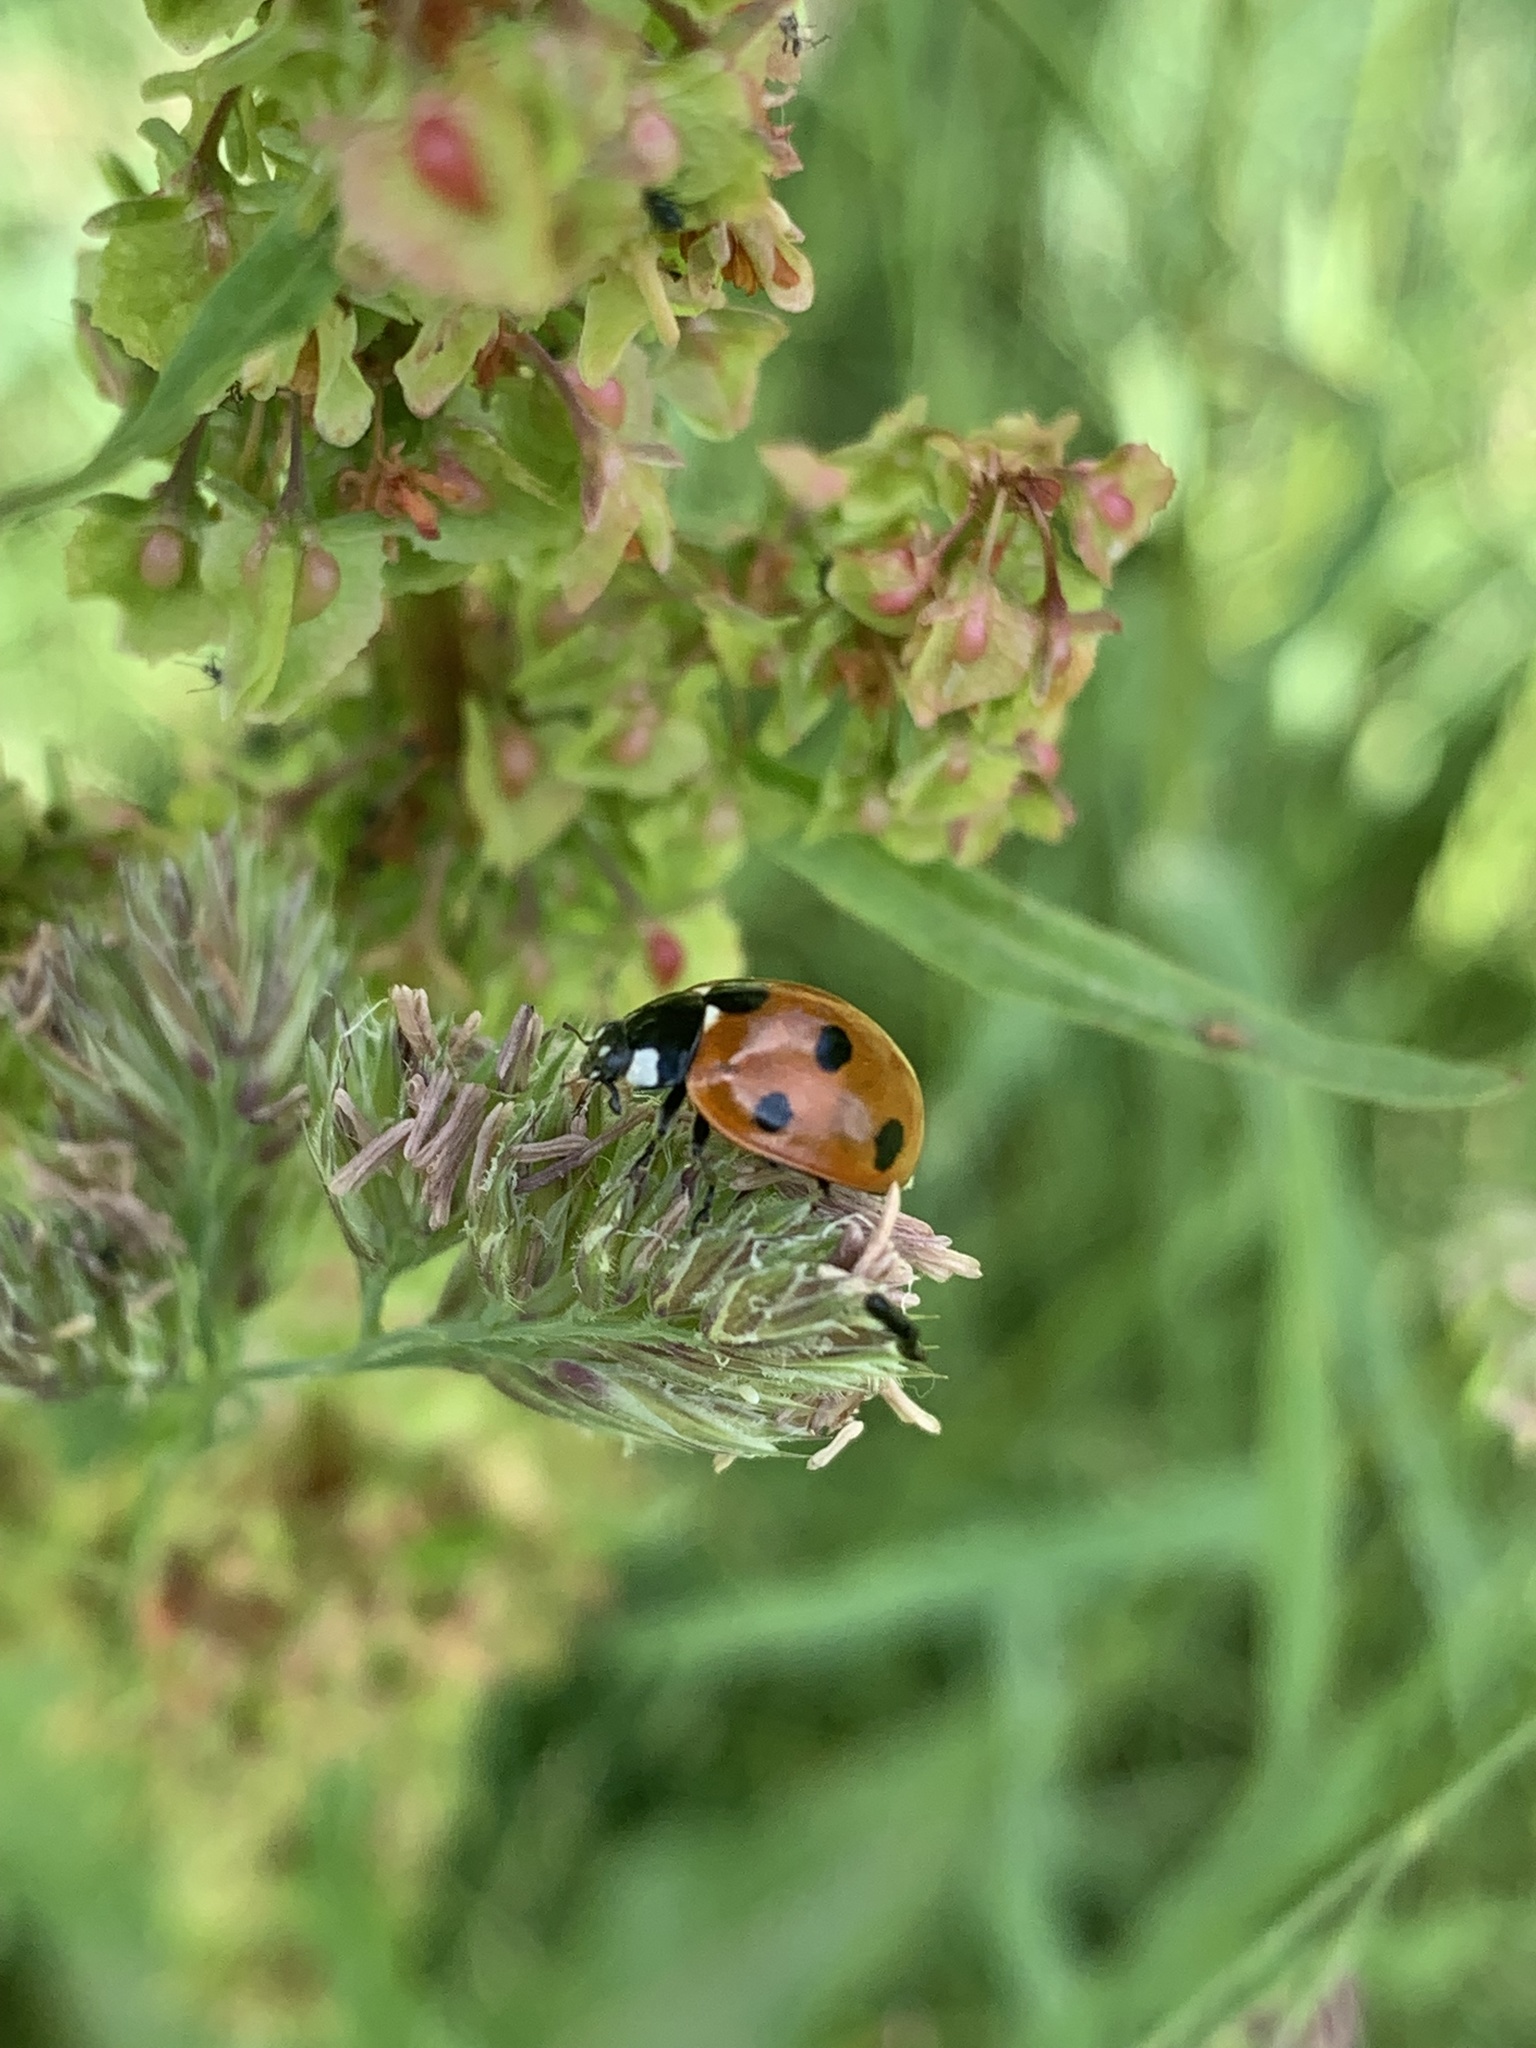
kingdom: Animalia
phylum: Arthropoda
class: Insecta
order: Coleoptera
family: Coccinellidae
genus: Coccinella
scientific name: Coccinella septempunctata
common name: Sevenspotted lady beetle
